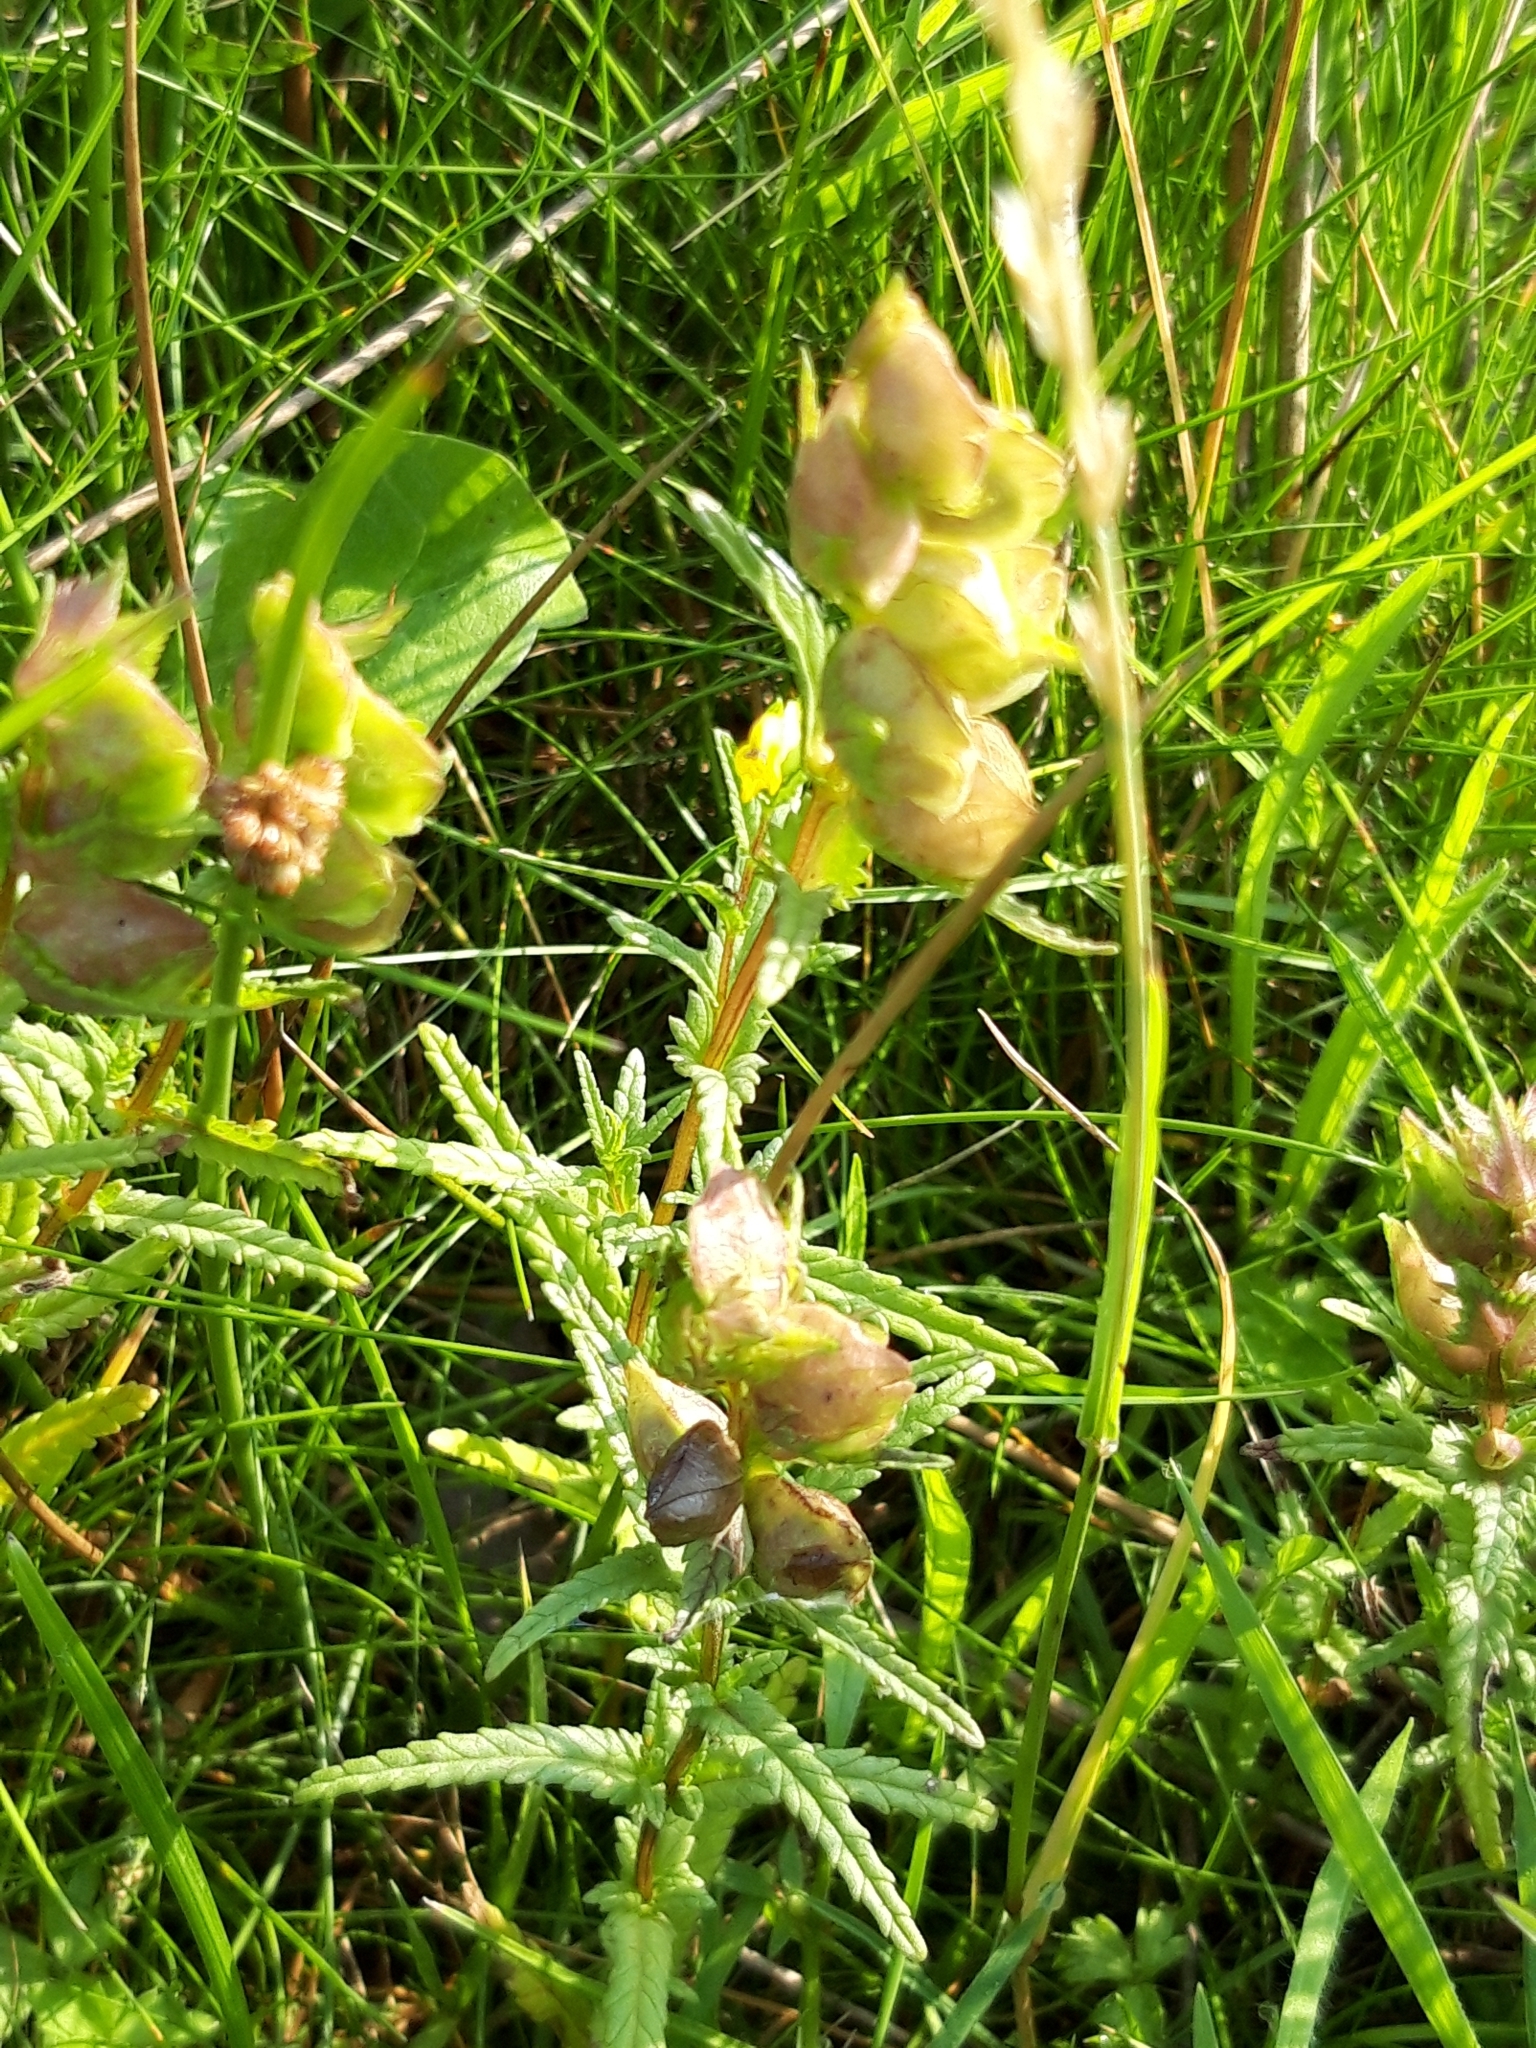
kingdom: Plantae
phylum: Tracheophyta
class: Magnoliopsida
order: Lamiales
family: Orobanchaceae
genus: Rhinanthus
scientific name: Rhinanthus minor
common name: Yellow-rattle
